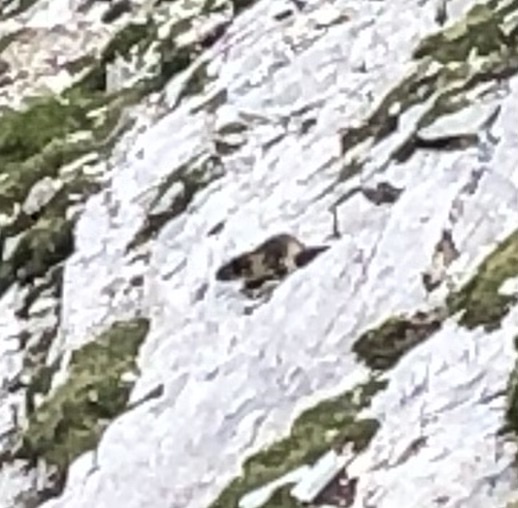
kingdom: Animalia
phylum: Chordata
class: Mammalia
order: Rodentia
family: Sciuridae
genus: Marmota
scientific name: Marmota marmota
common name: Alpine marmot
